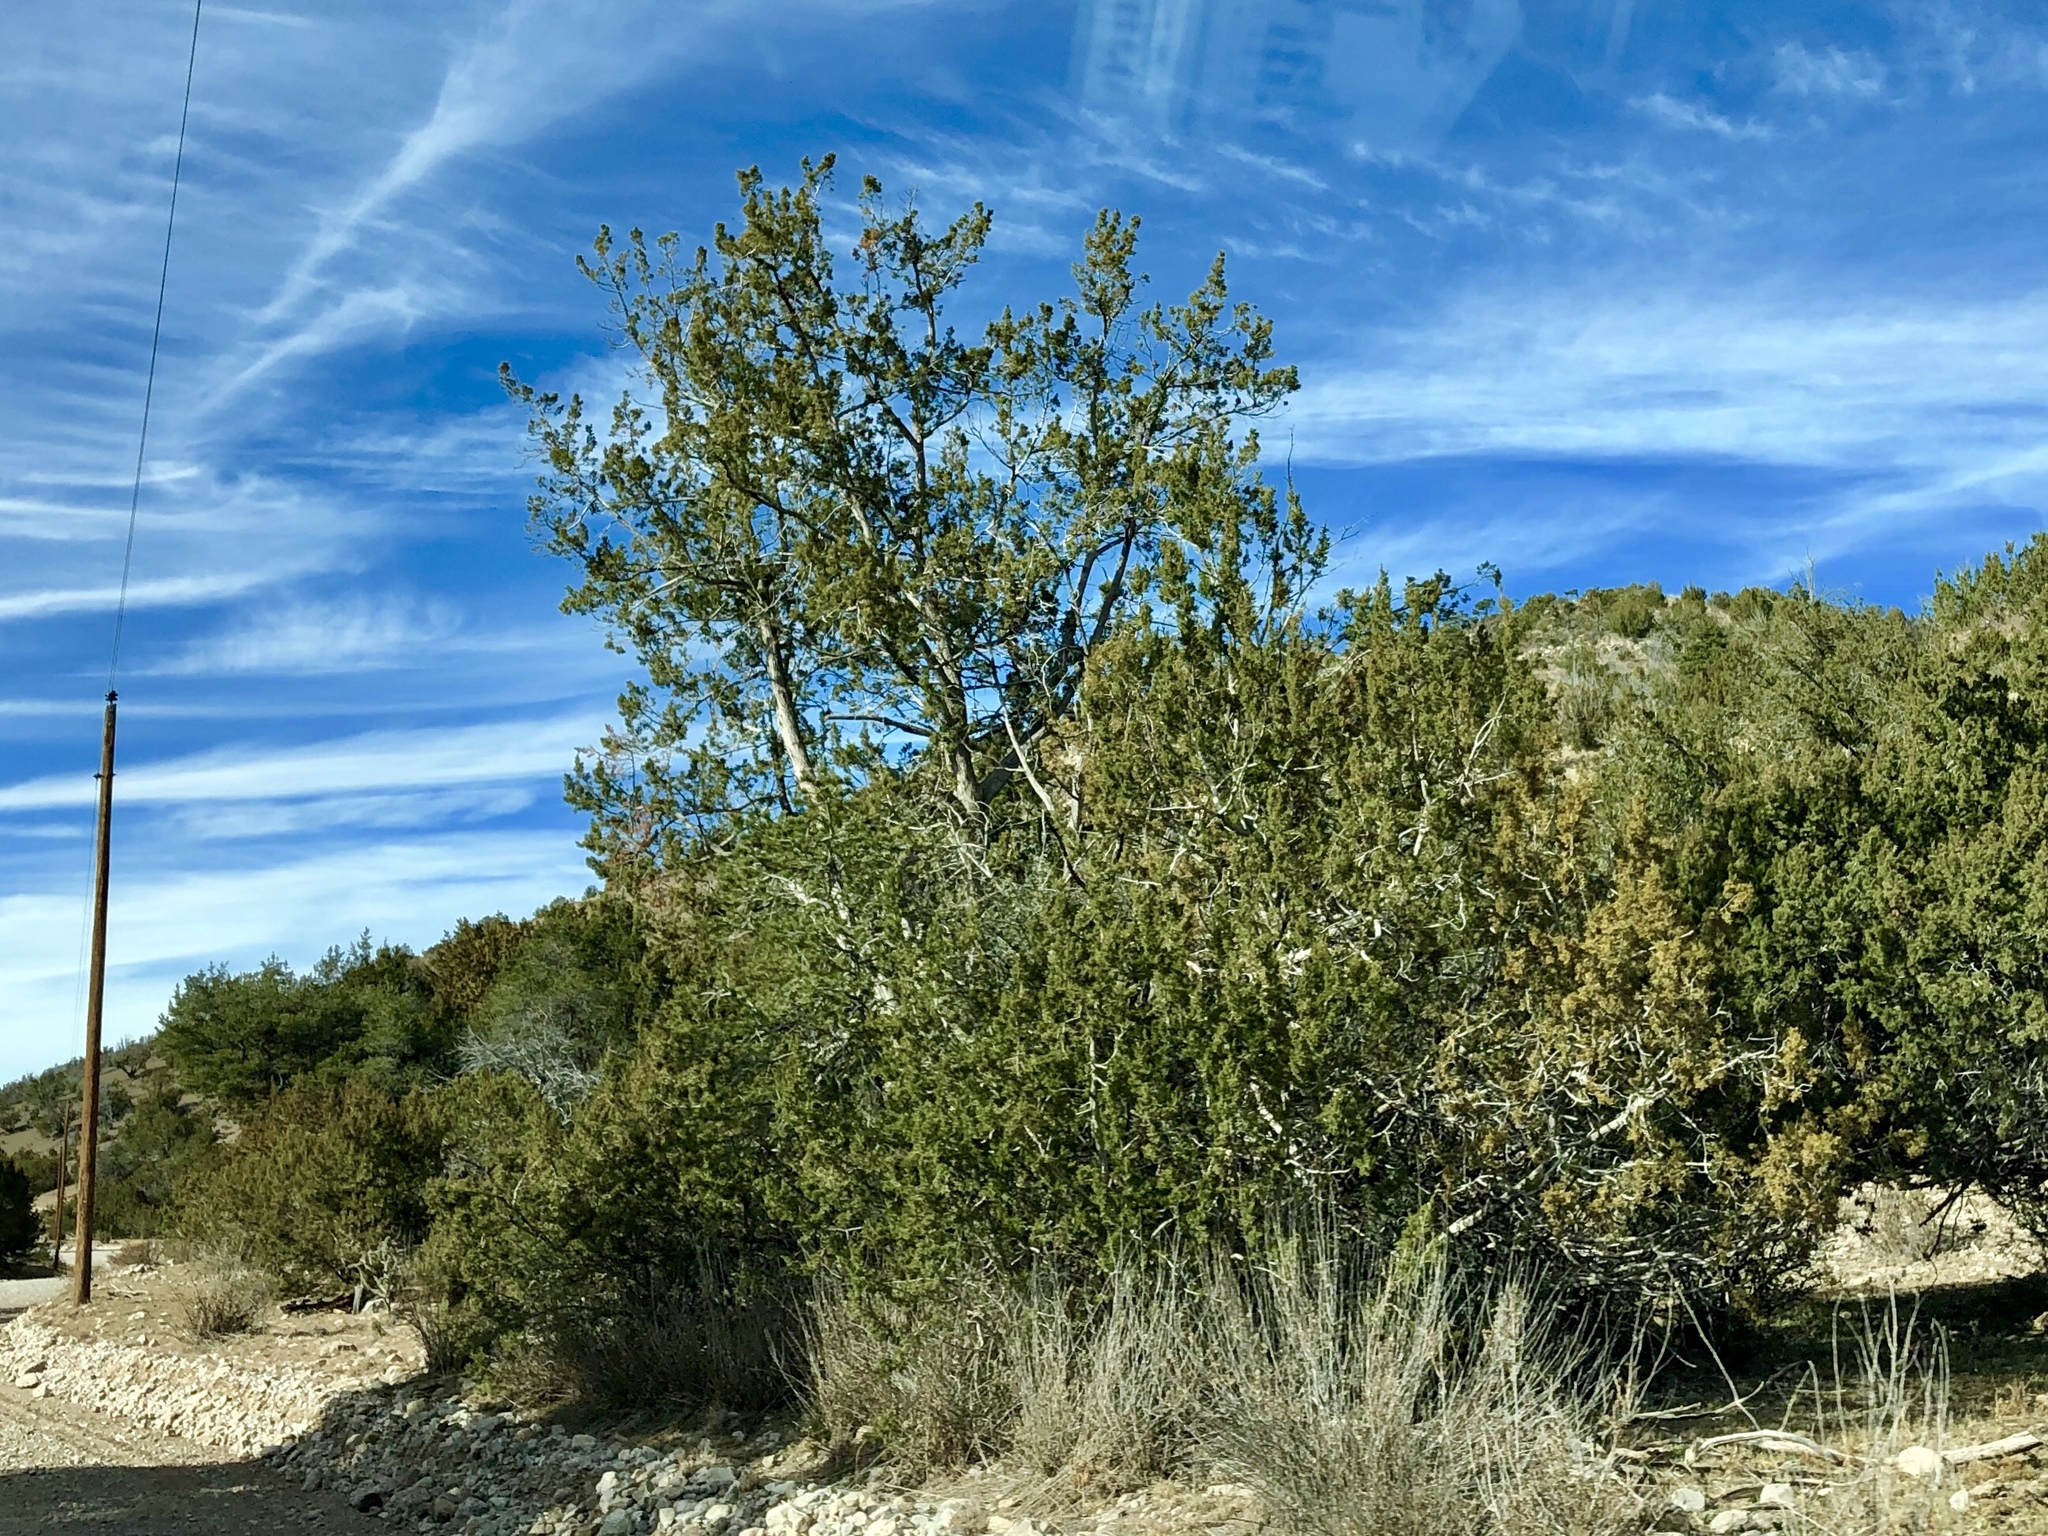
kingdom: Plantae
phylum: Tracheophyta
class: Pinopsida
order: Pinales
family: Cupressaceae
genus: Juniperus
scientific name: Juniperus monosperma
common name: One-seed juniper
